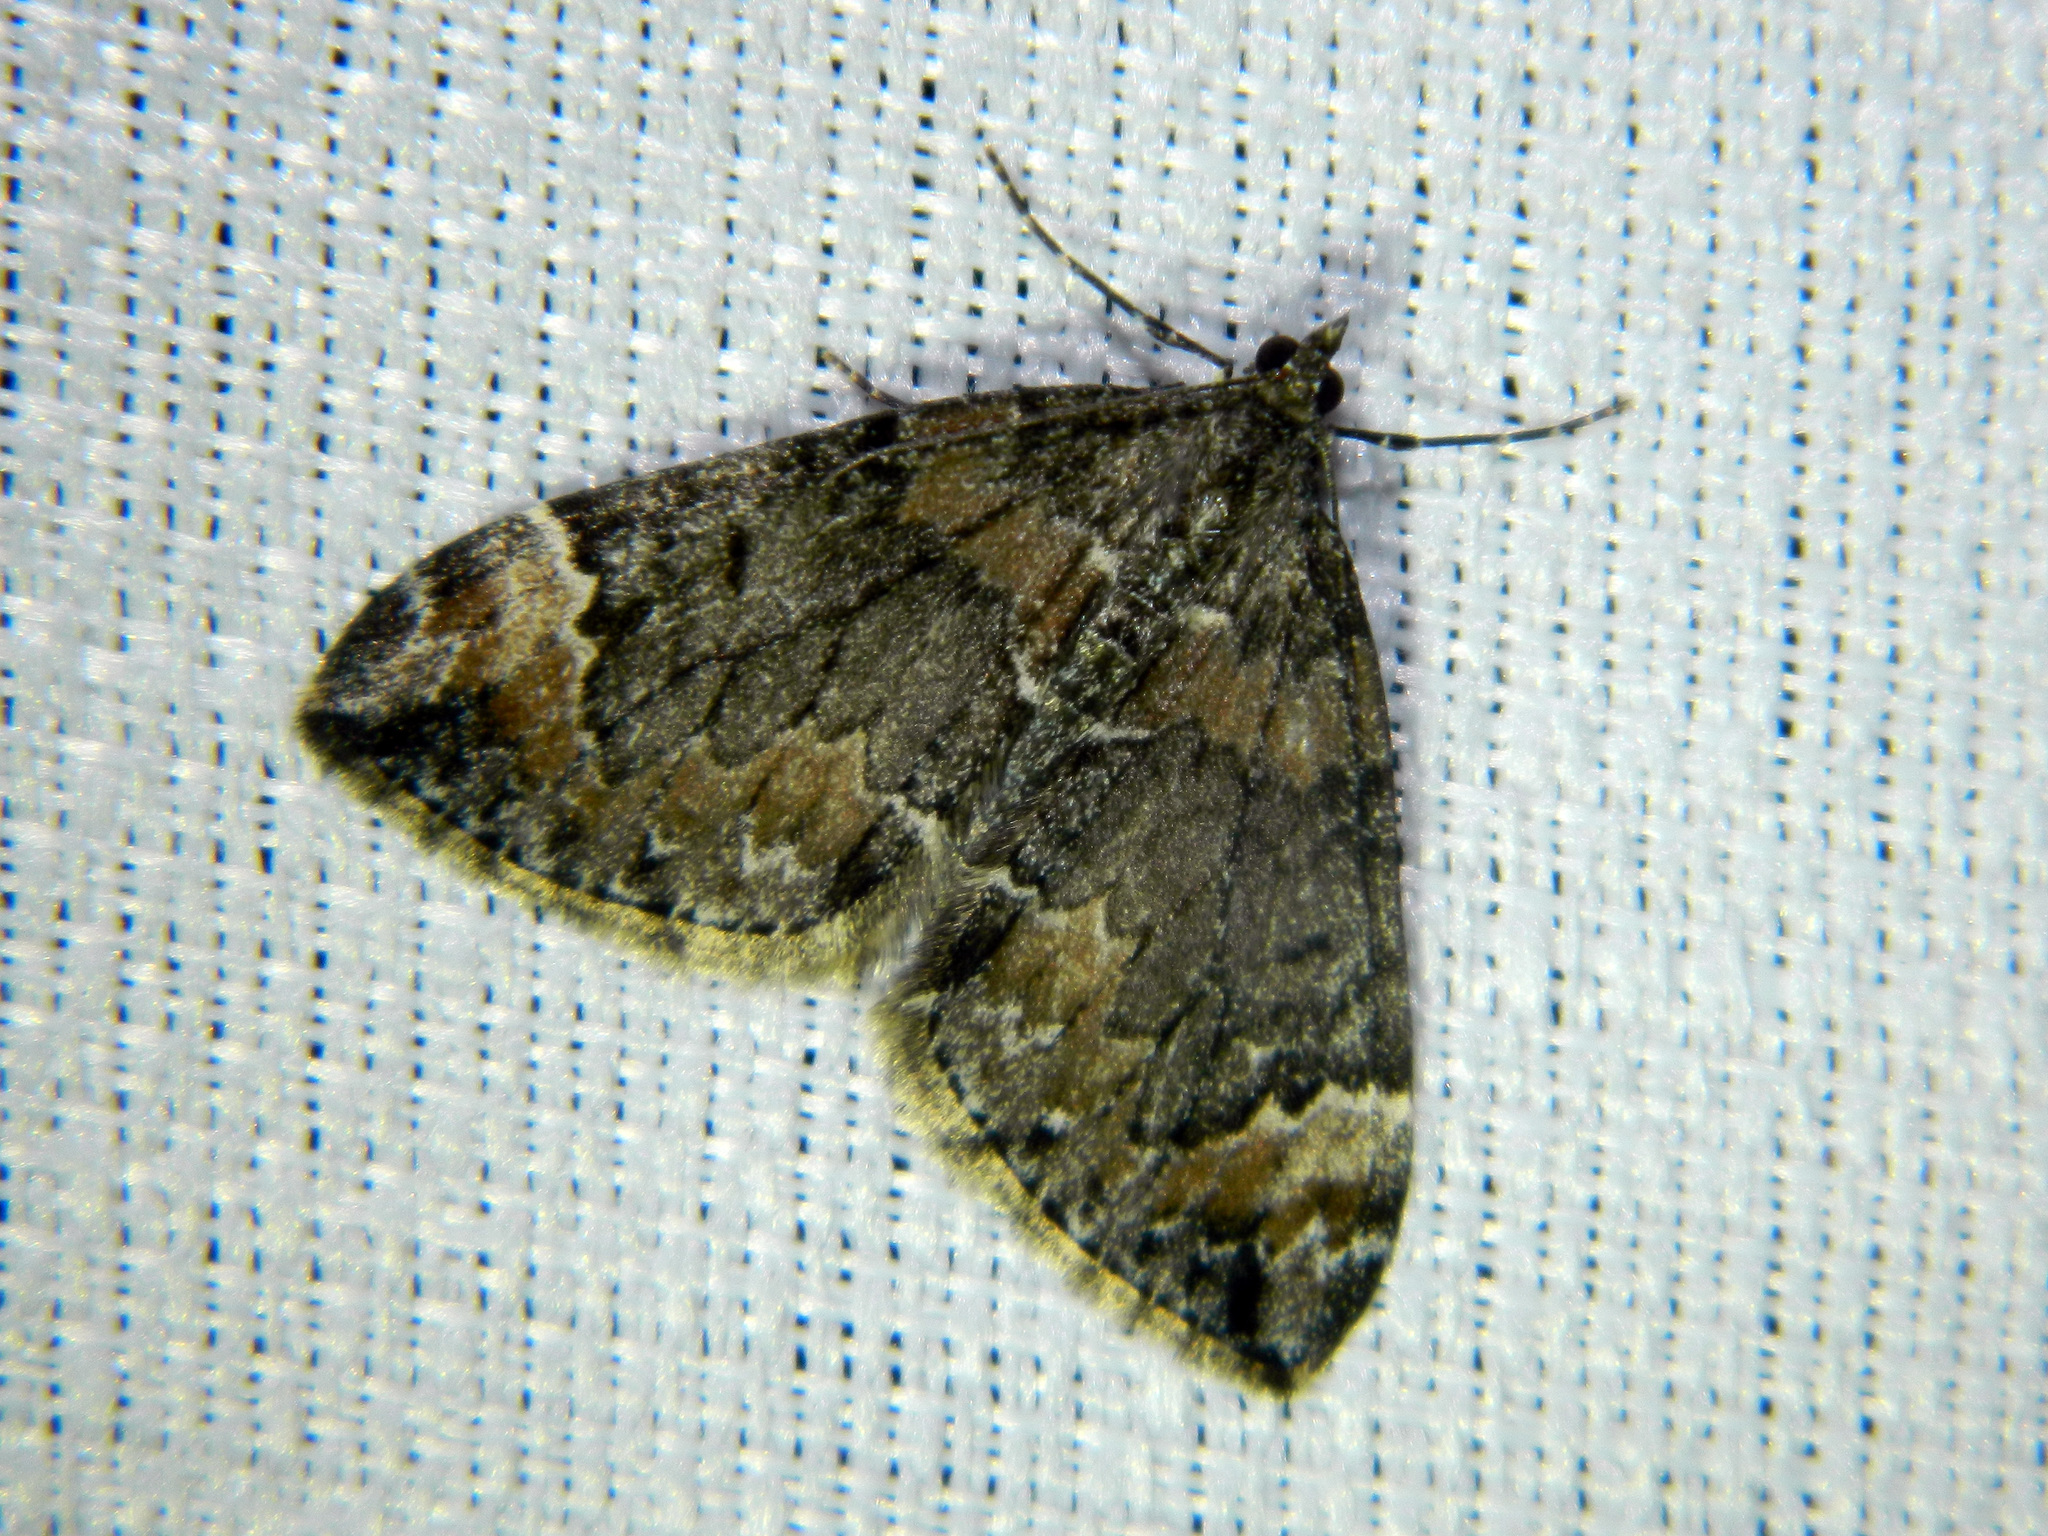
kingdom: Animalia
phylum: Arthropoda
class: Insecta
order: Lepidoptera
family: Geometridae
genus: Dysstroma
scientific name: Dysstroma citrata
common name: Dark marbled carpet
